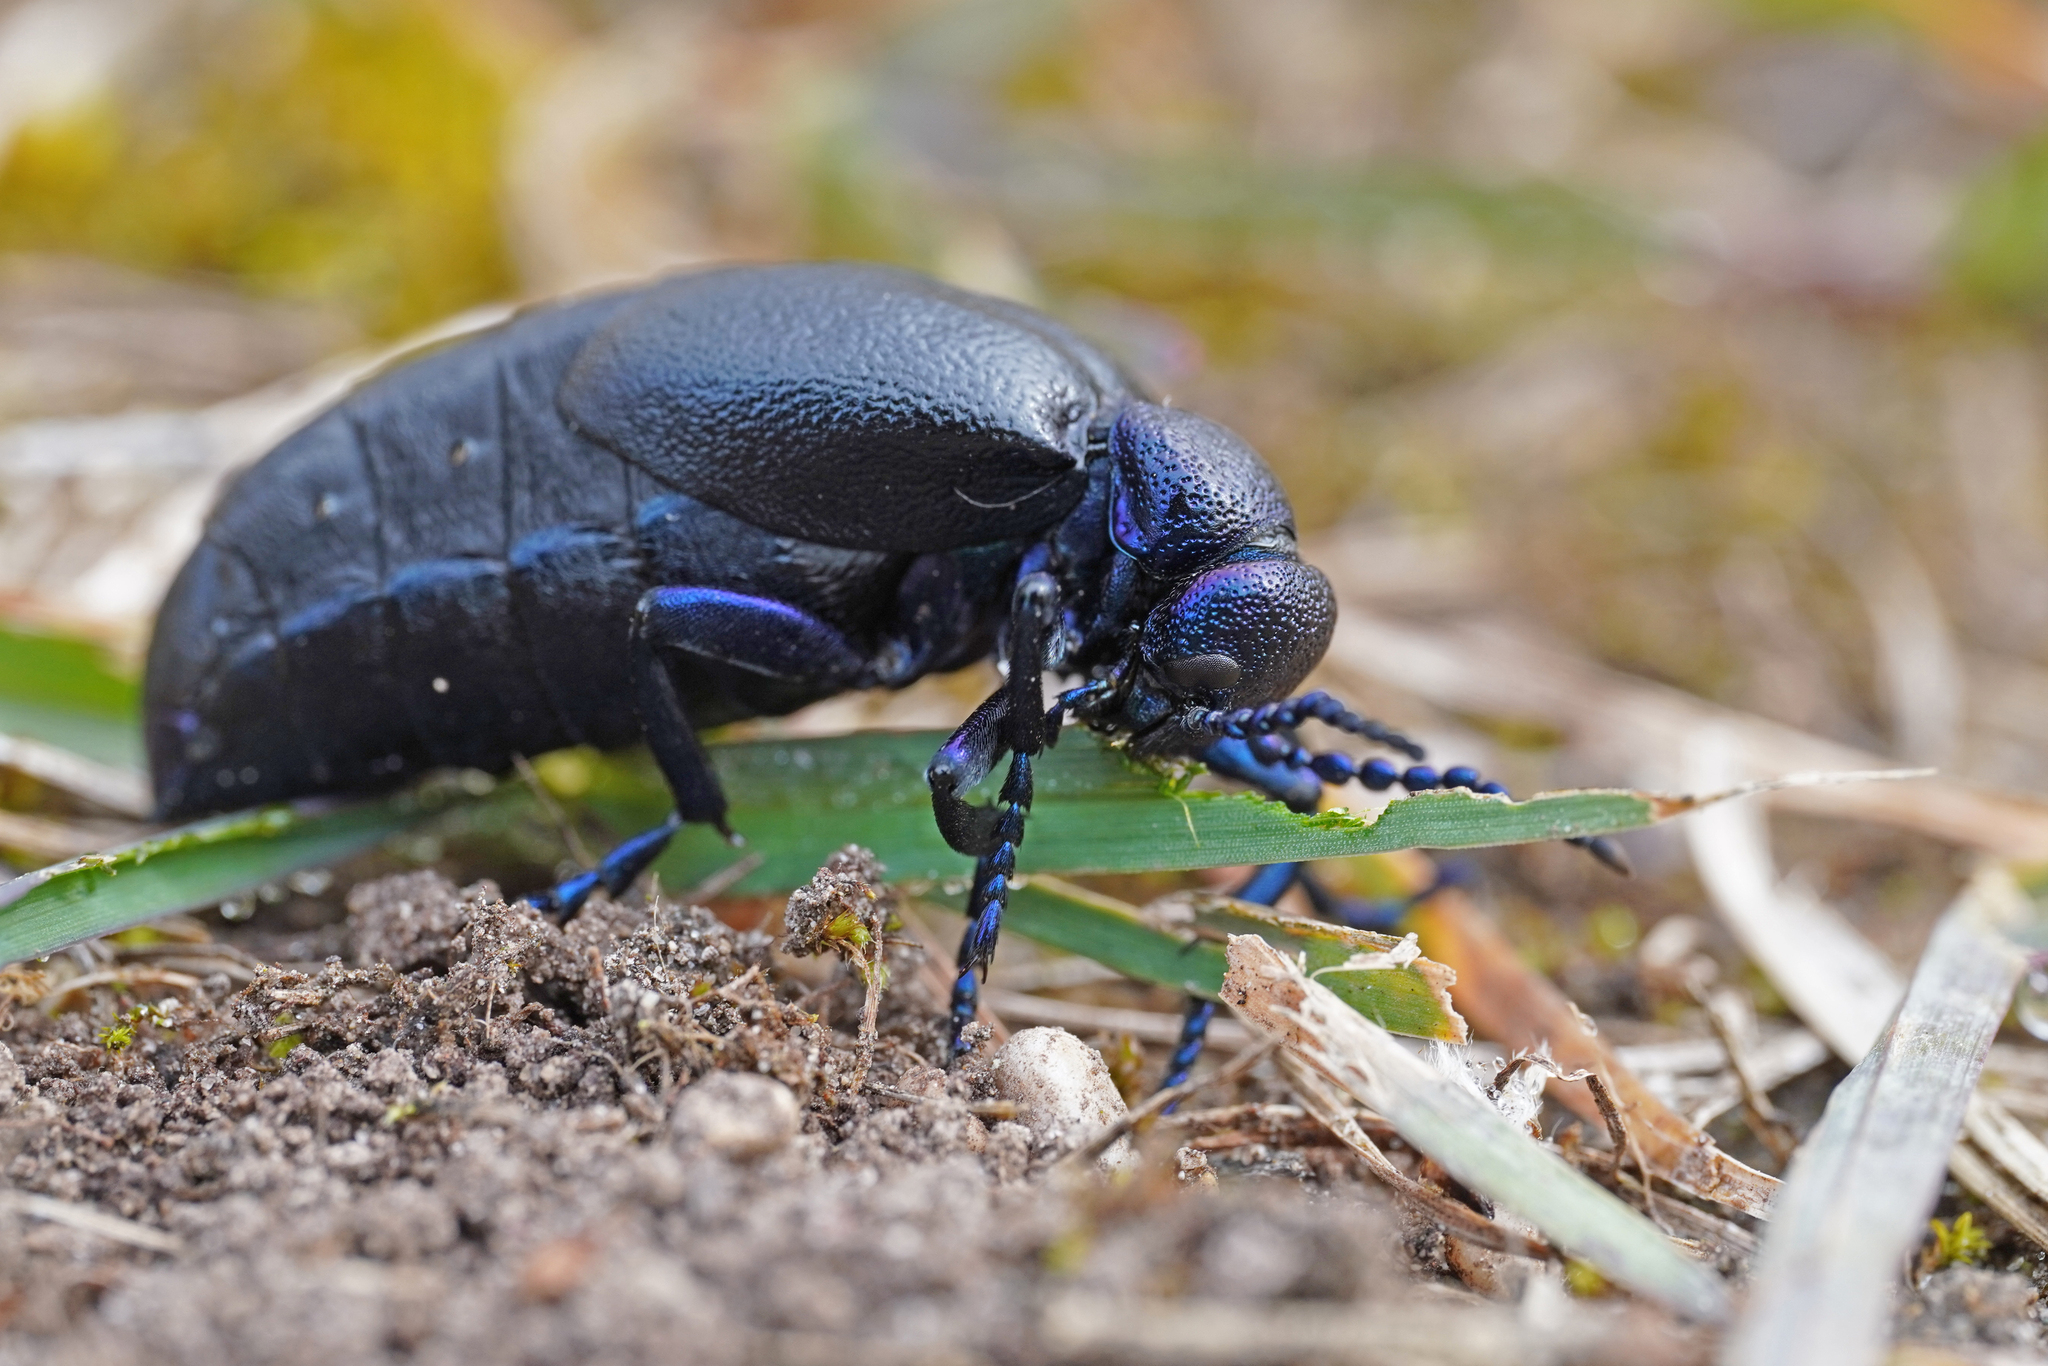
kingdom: Animalia
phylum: Arthropoda
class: Insecta
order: Coleoptera
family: Meloidae
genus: Meloe
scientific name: Meloe proscarabaeus
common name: Black oil-beetle
